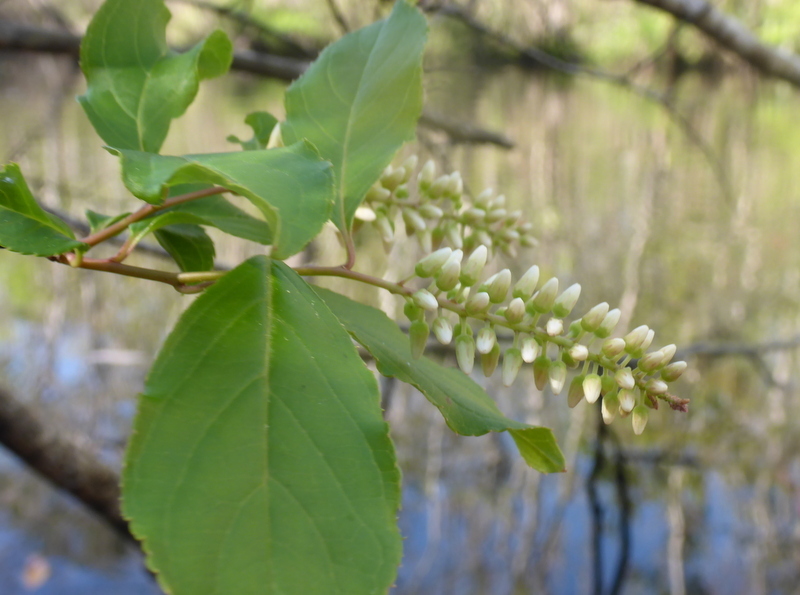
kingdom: Plantae
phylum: Tracheophyta
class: Magnoliopsida
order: Saxifragales
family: Iteaceae
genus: Itea
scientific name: Itea virginica
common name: Sweetspire
